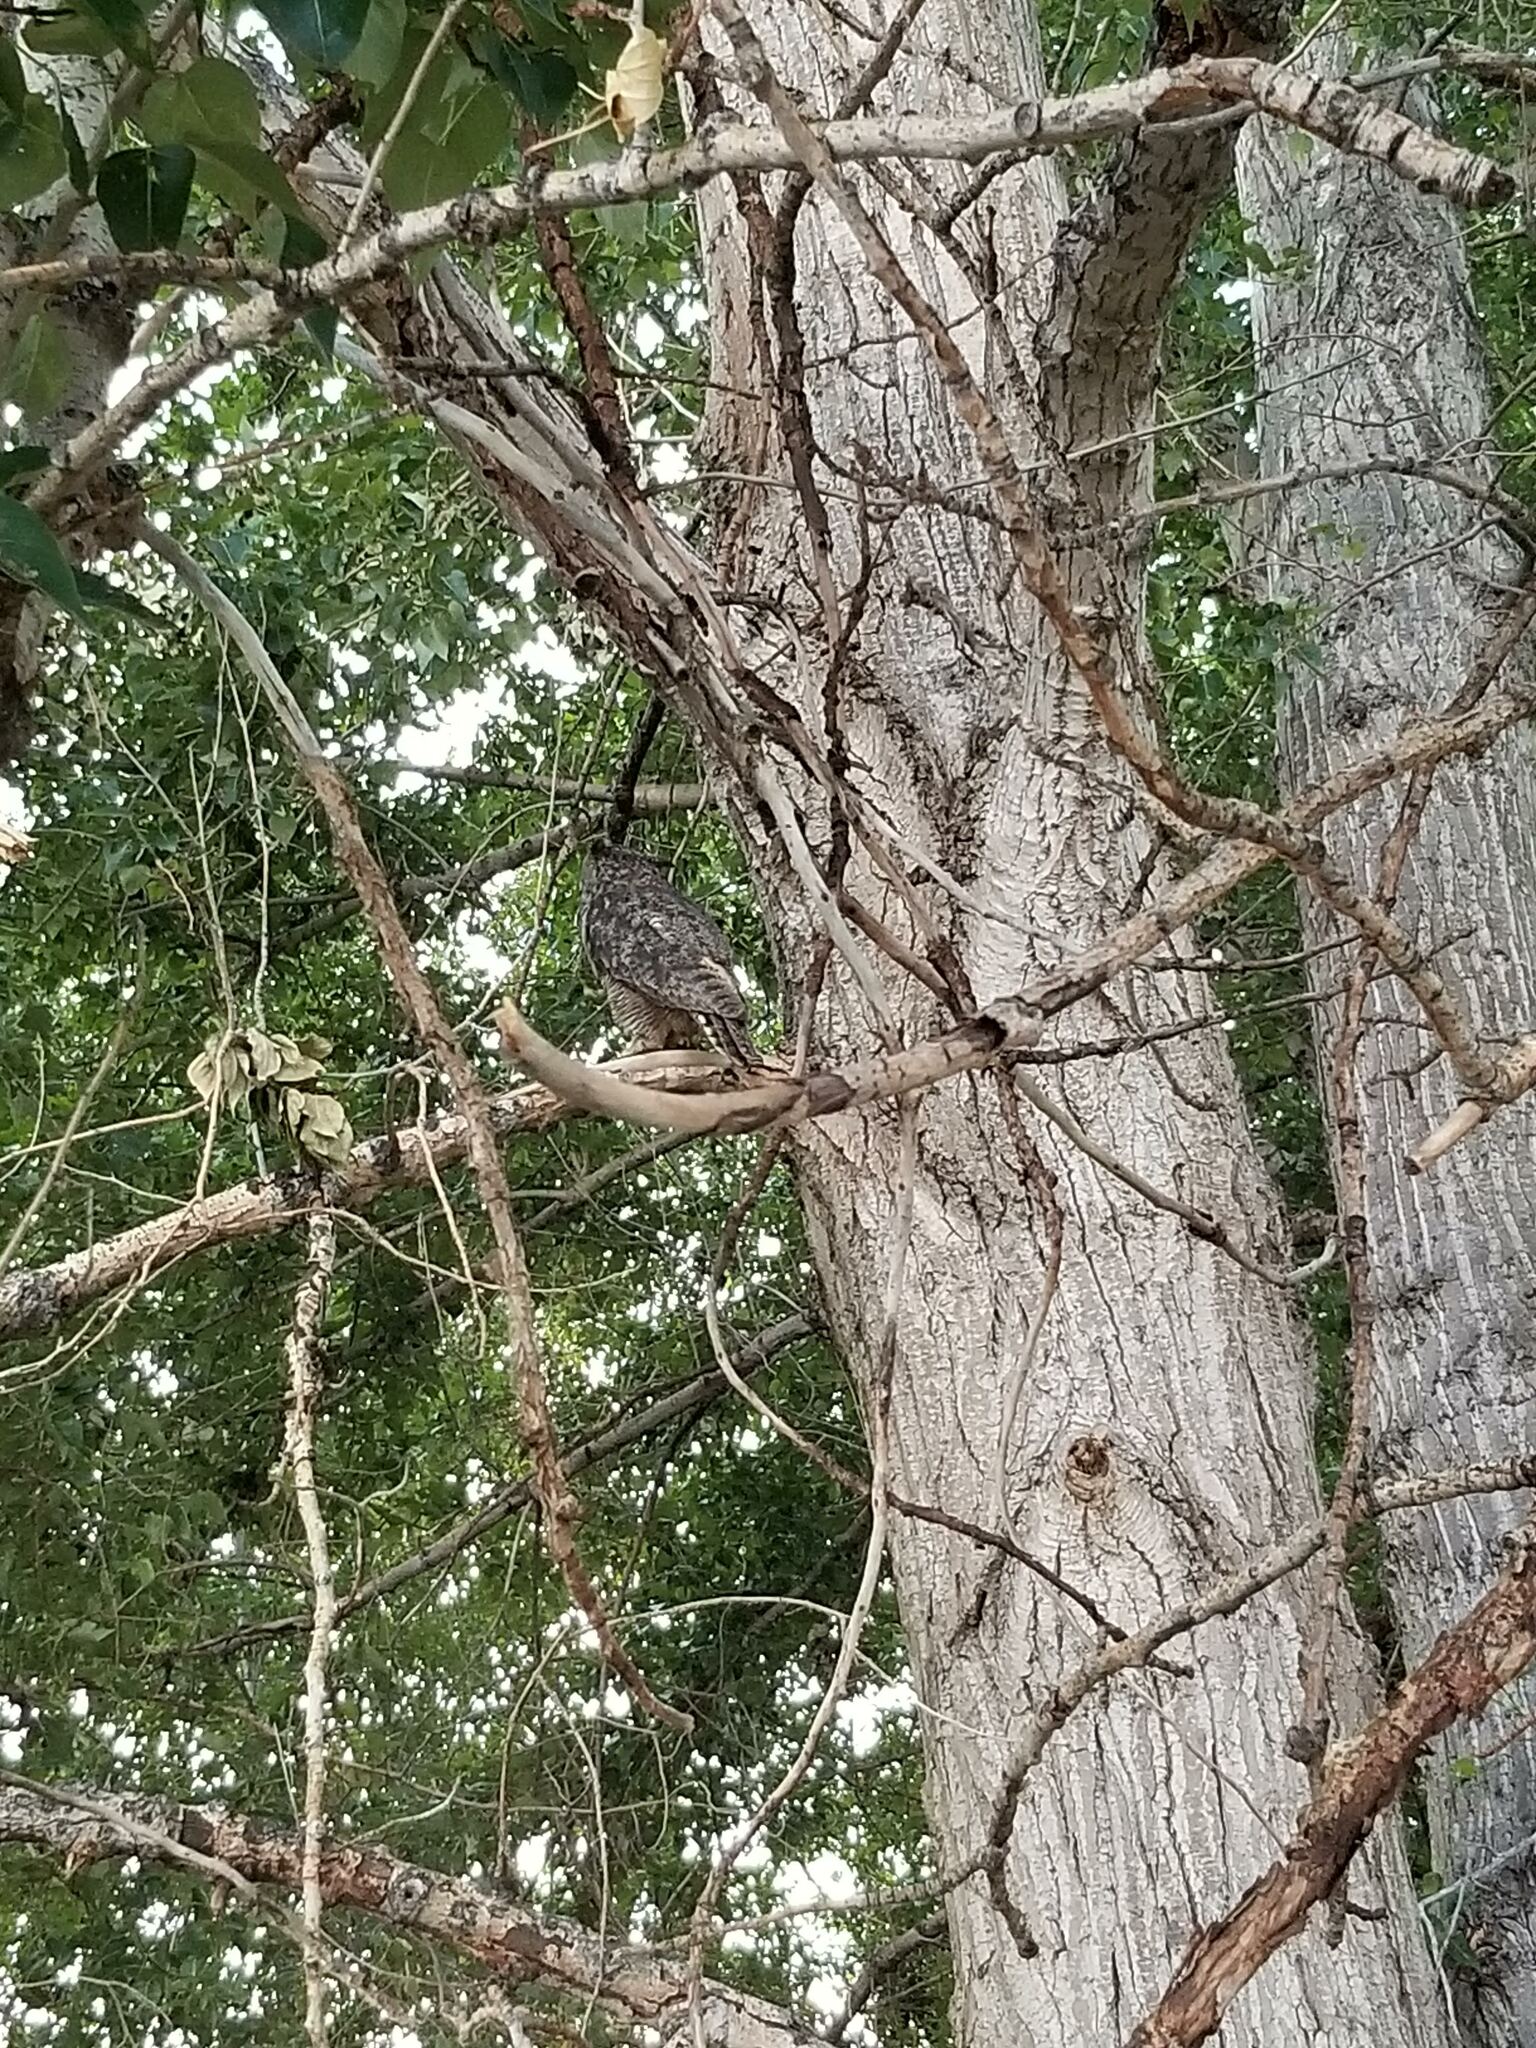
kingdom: Animalia
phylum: Chordata
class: Aves
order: Strigiformes
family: Strigidae
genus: Bubo
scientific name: Bubo virginianus
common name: Great horned owl
